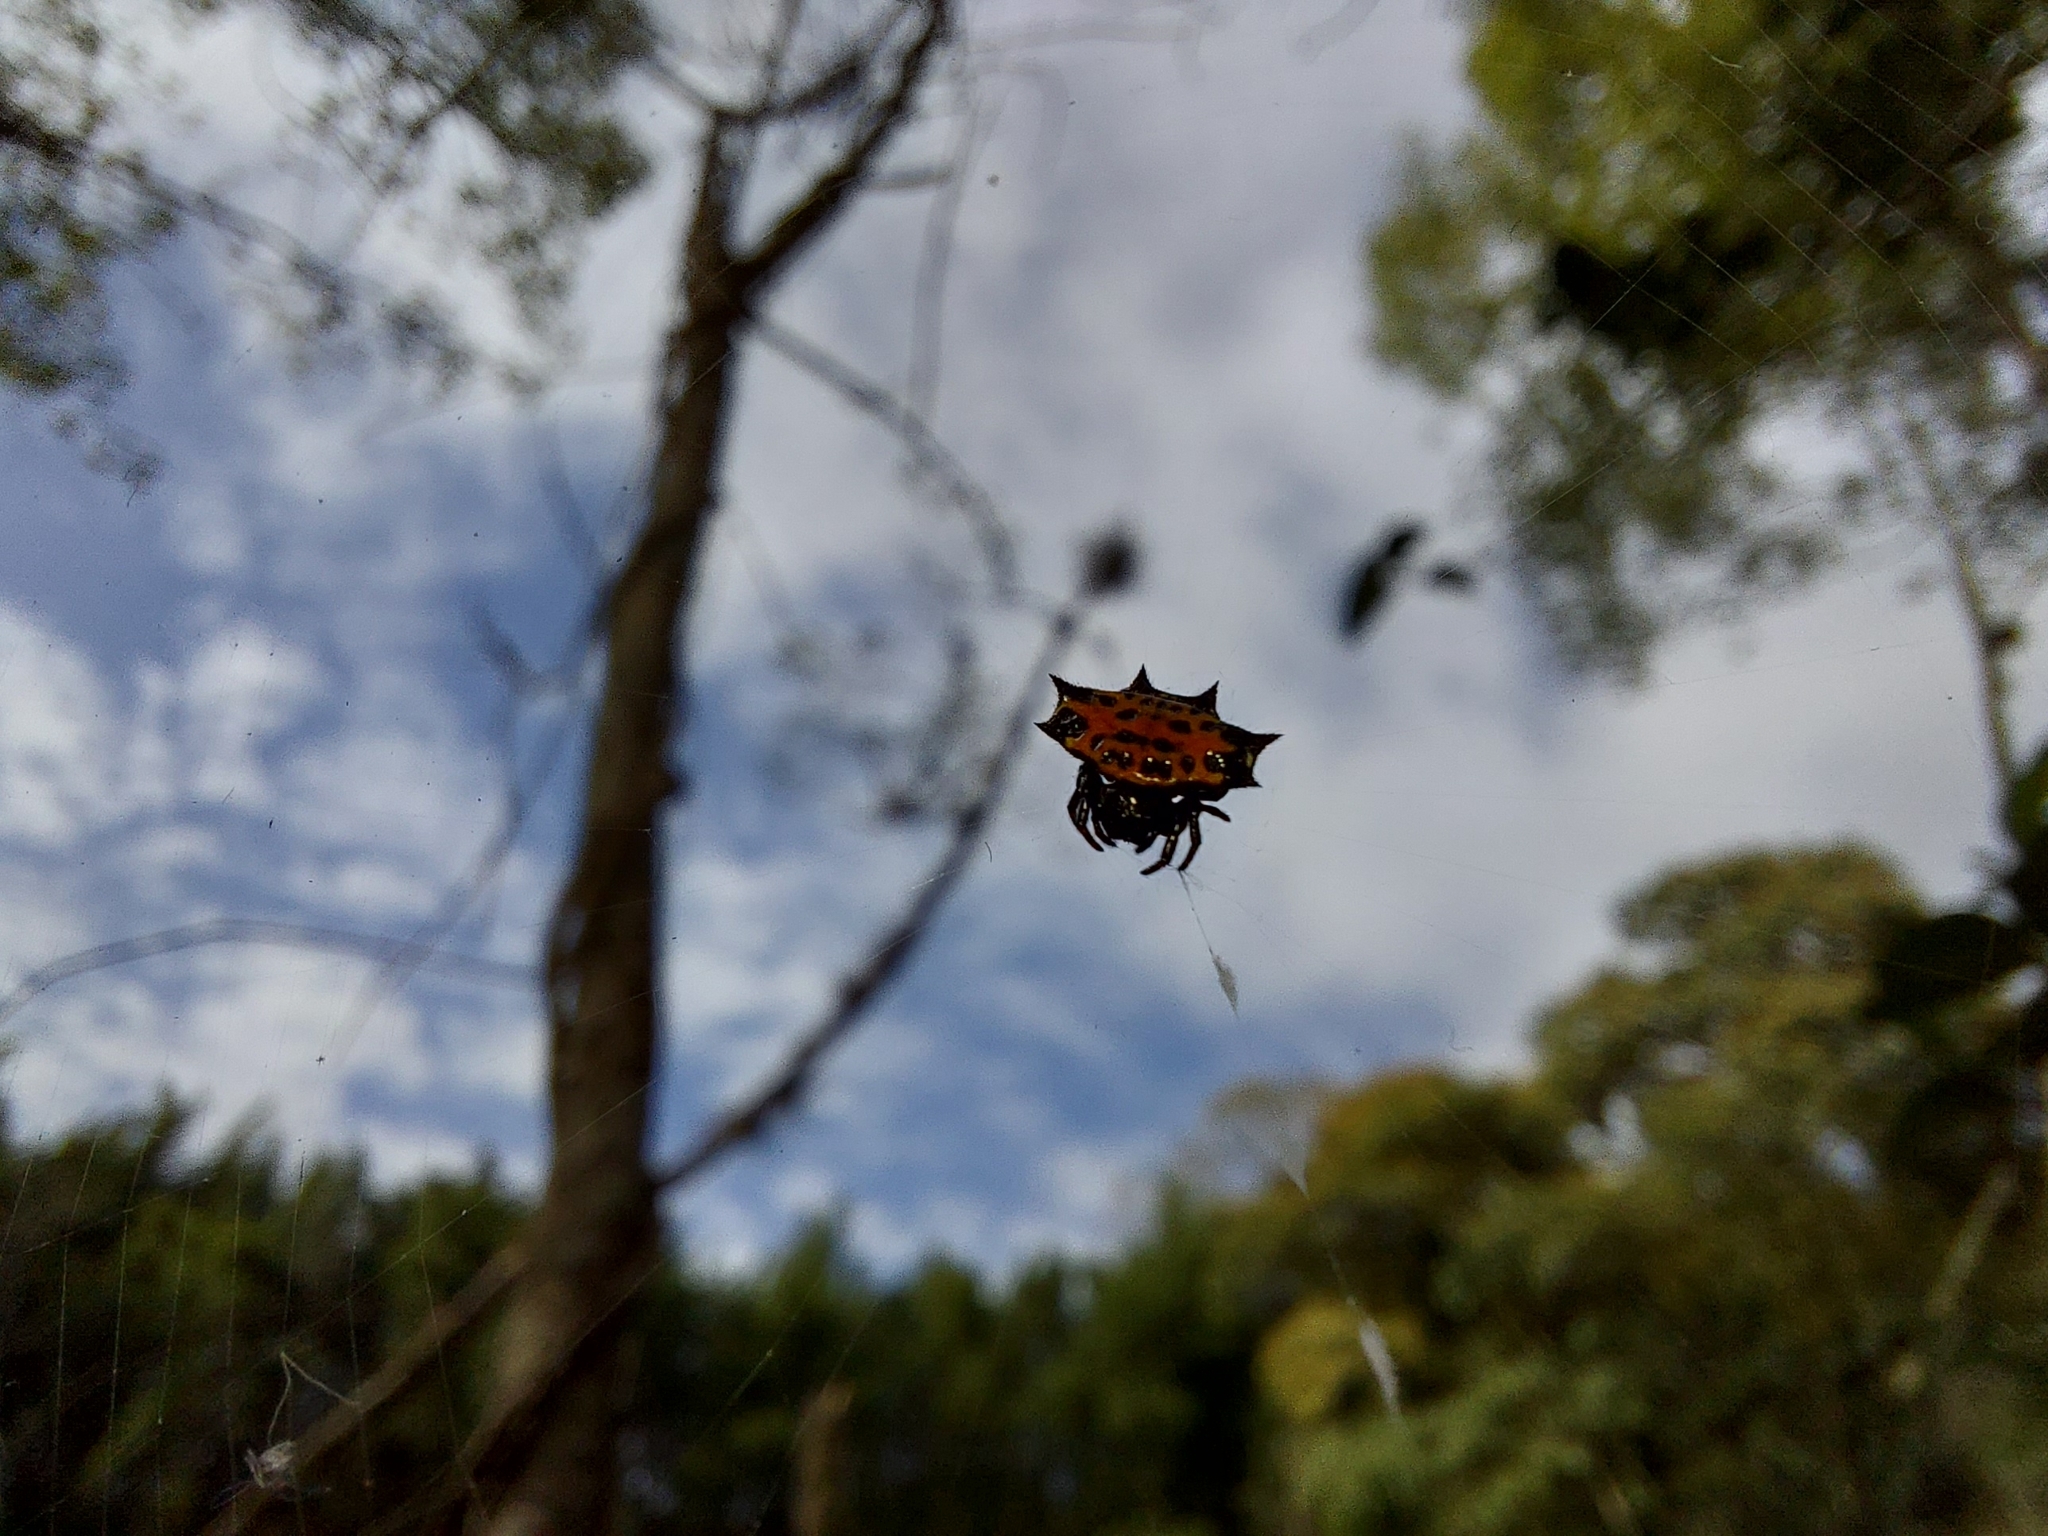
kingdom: Animalia
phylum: Arthropoda
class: Arachnida
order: Araneae
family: Araneidae
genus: Gasteracantha
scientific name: Gasteracantha cancriformis
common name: Orb weavers
